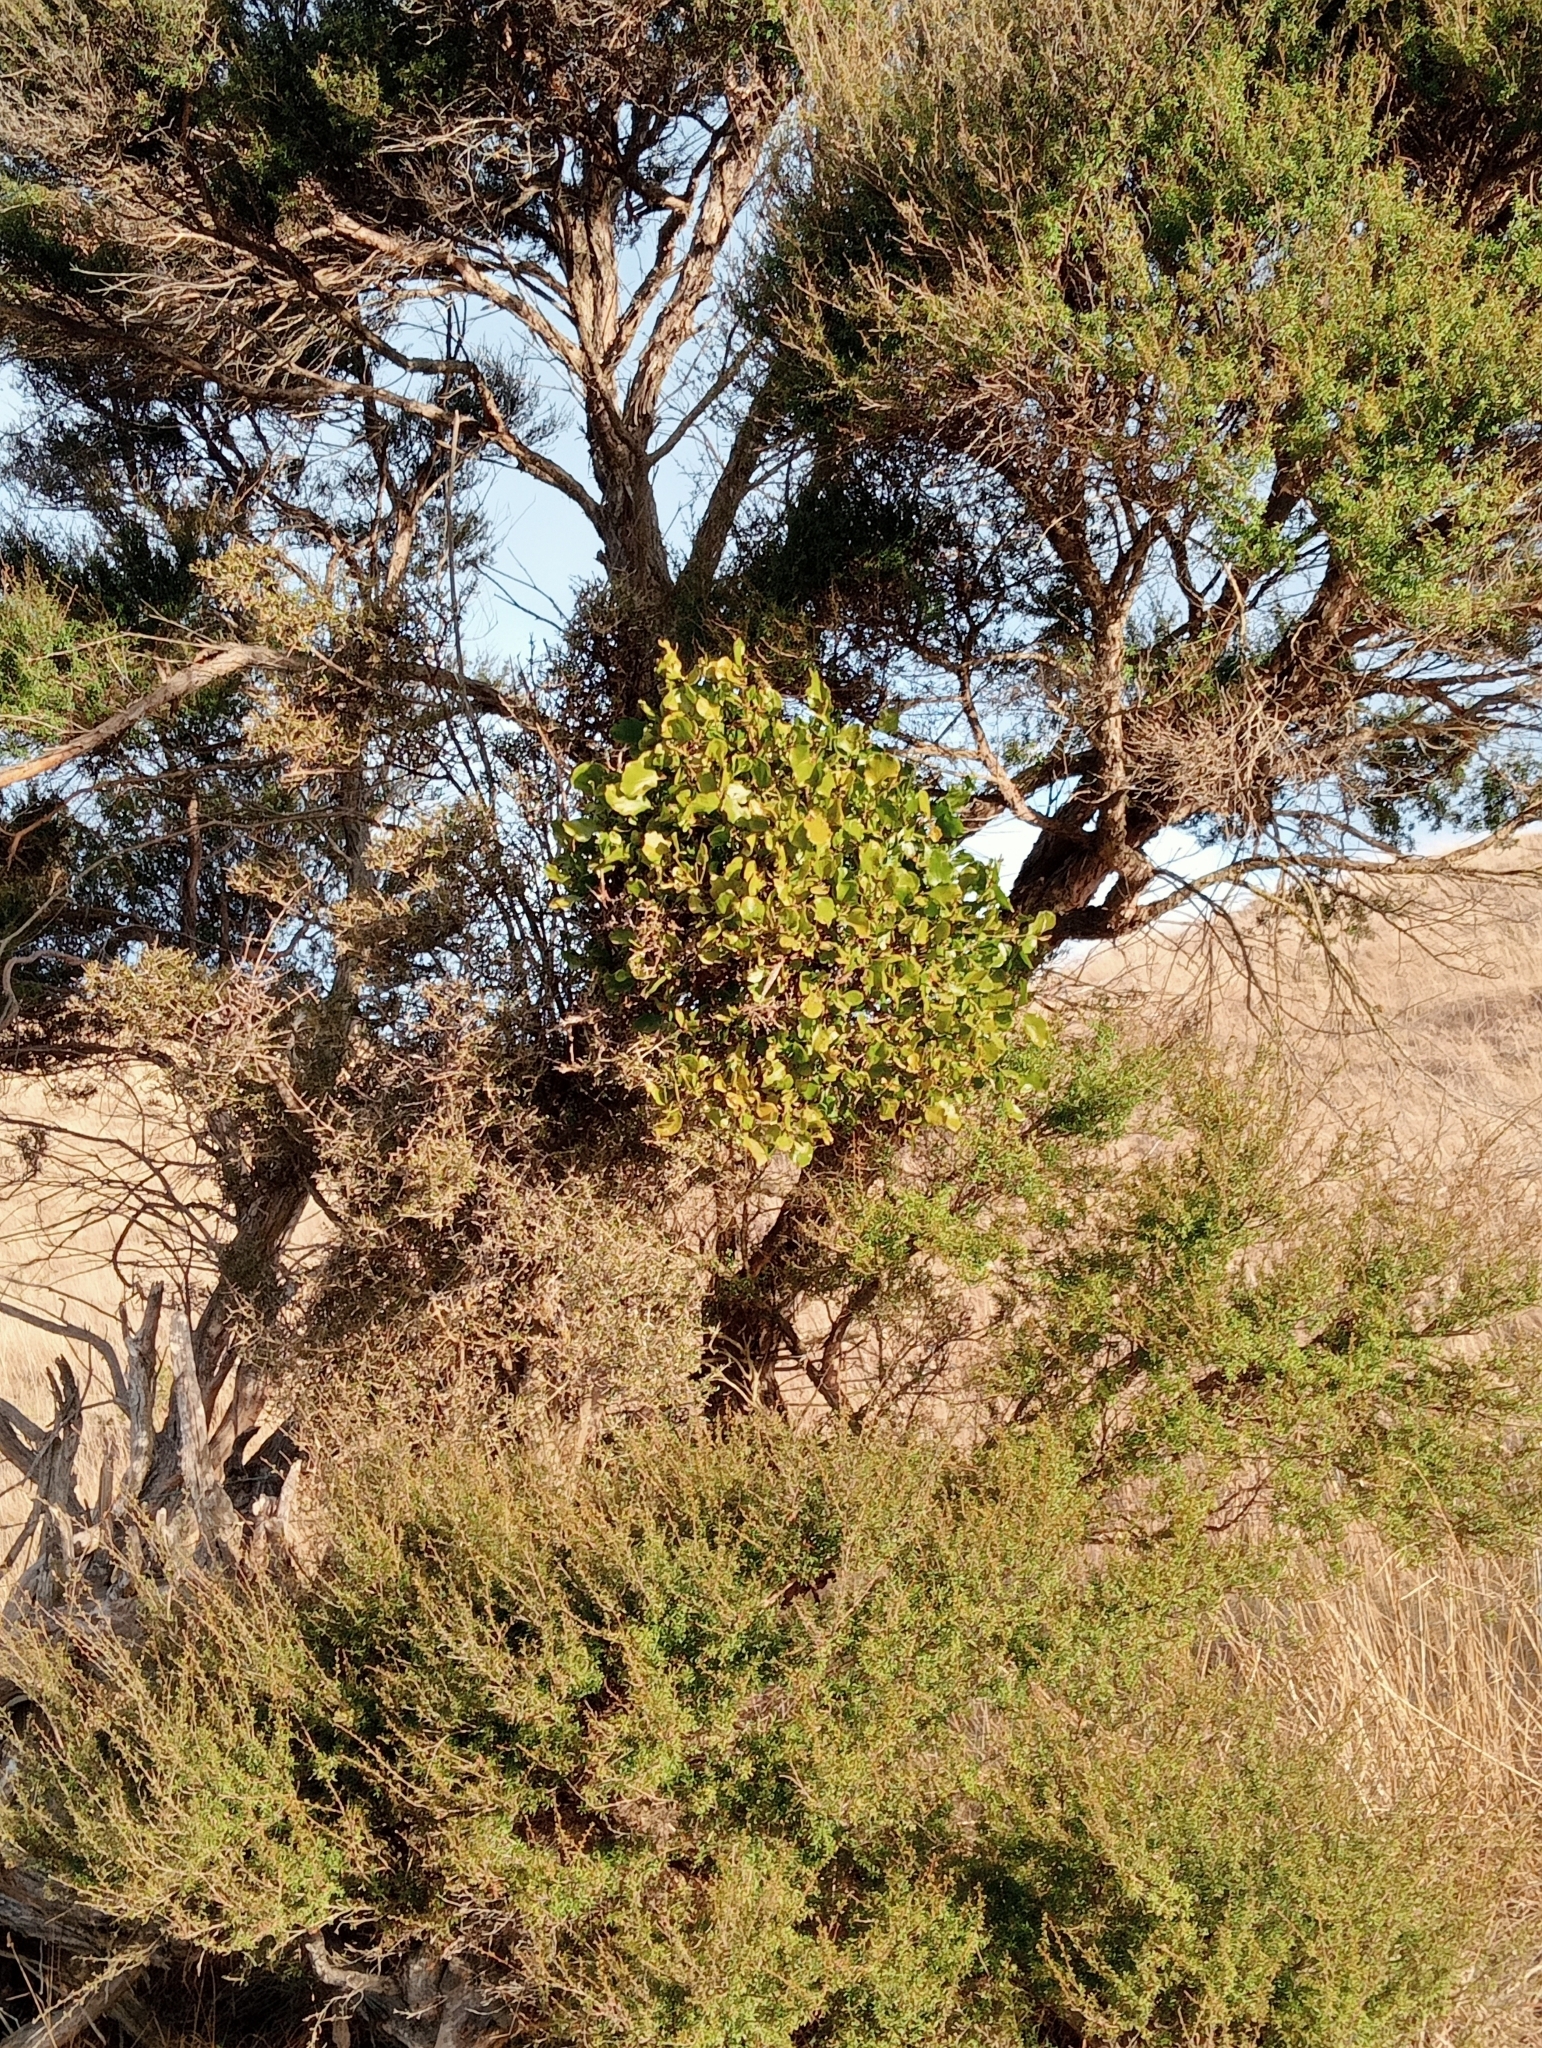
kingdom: Plantae
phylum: Tracheophyta
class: Magnoliopsida
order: Santalales
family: Loranthaceae
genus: Ileostylus
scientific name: Ileostylus micranthus
